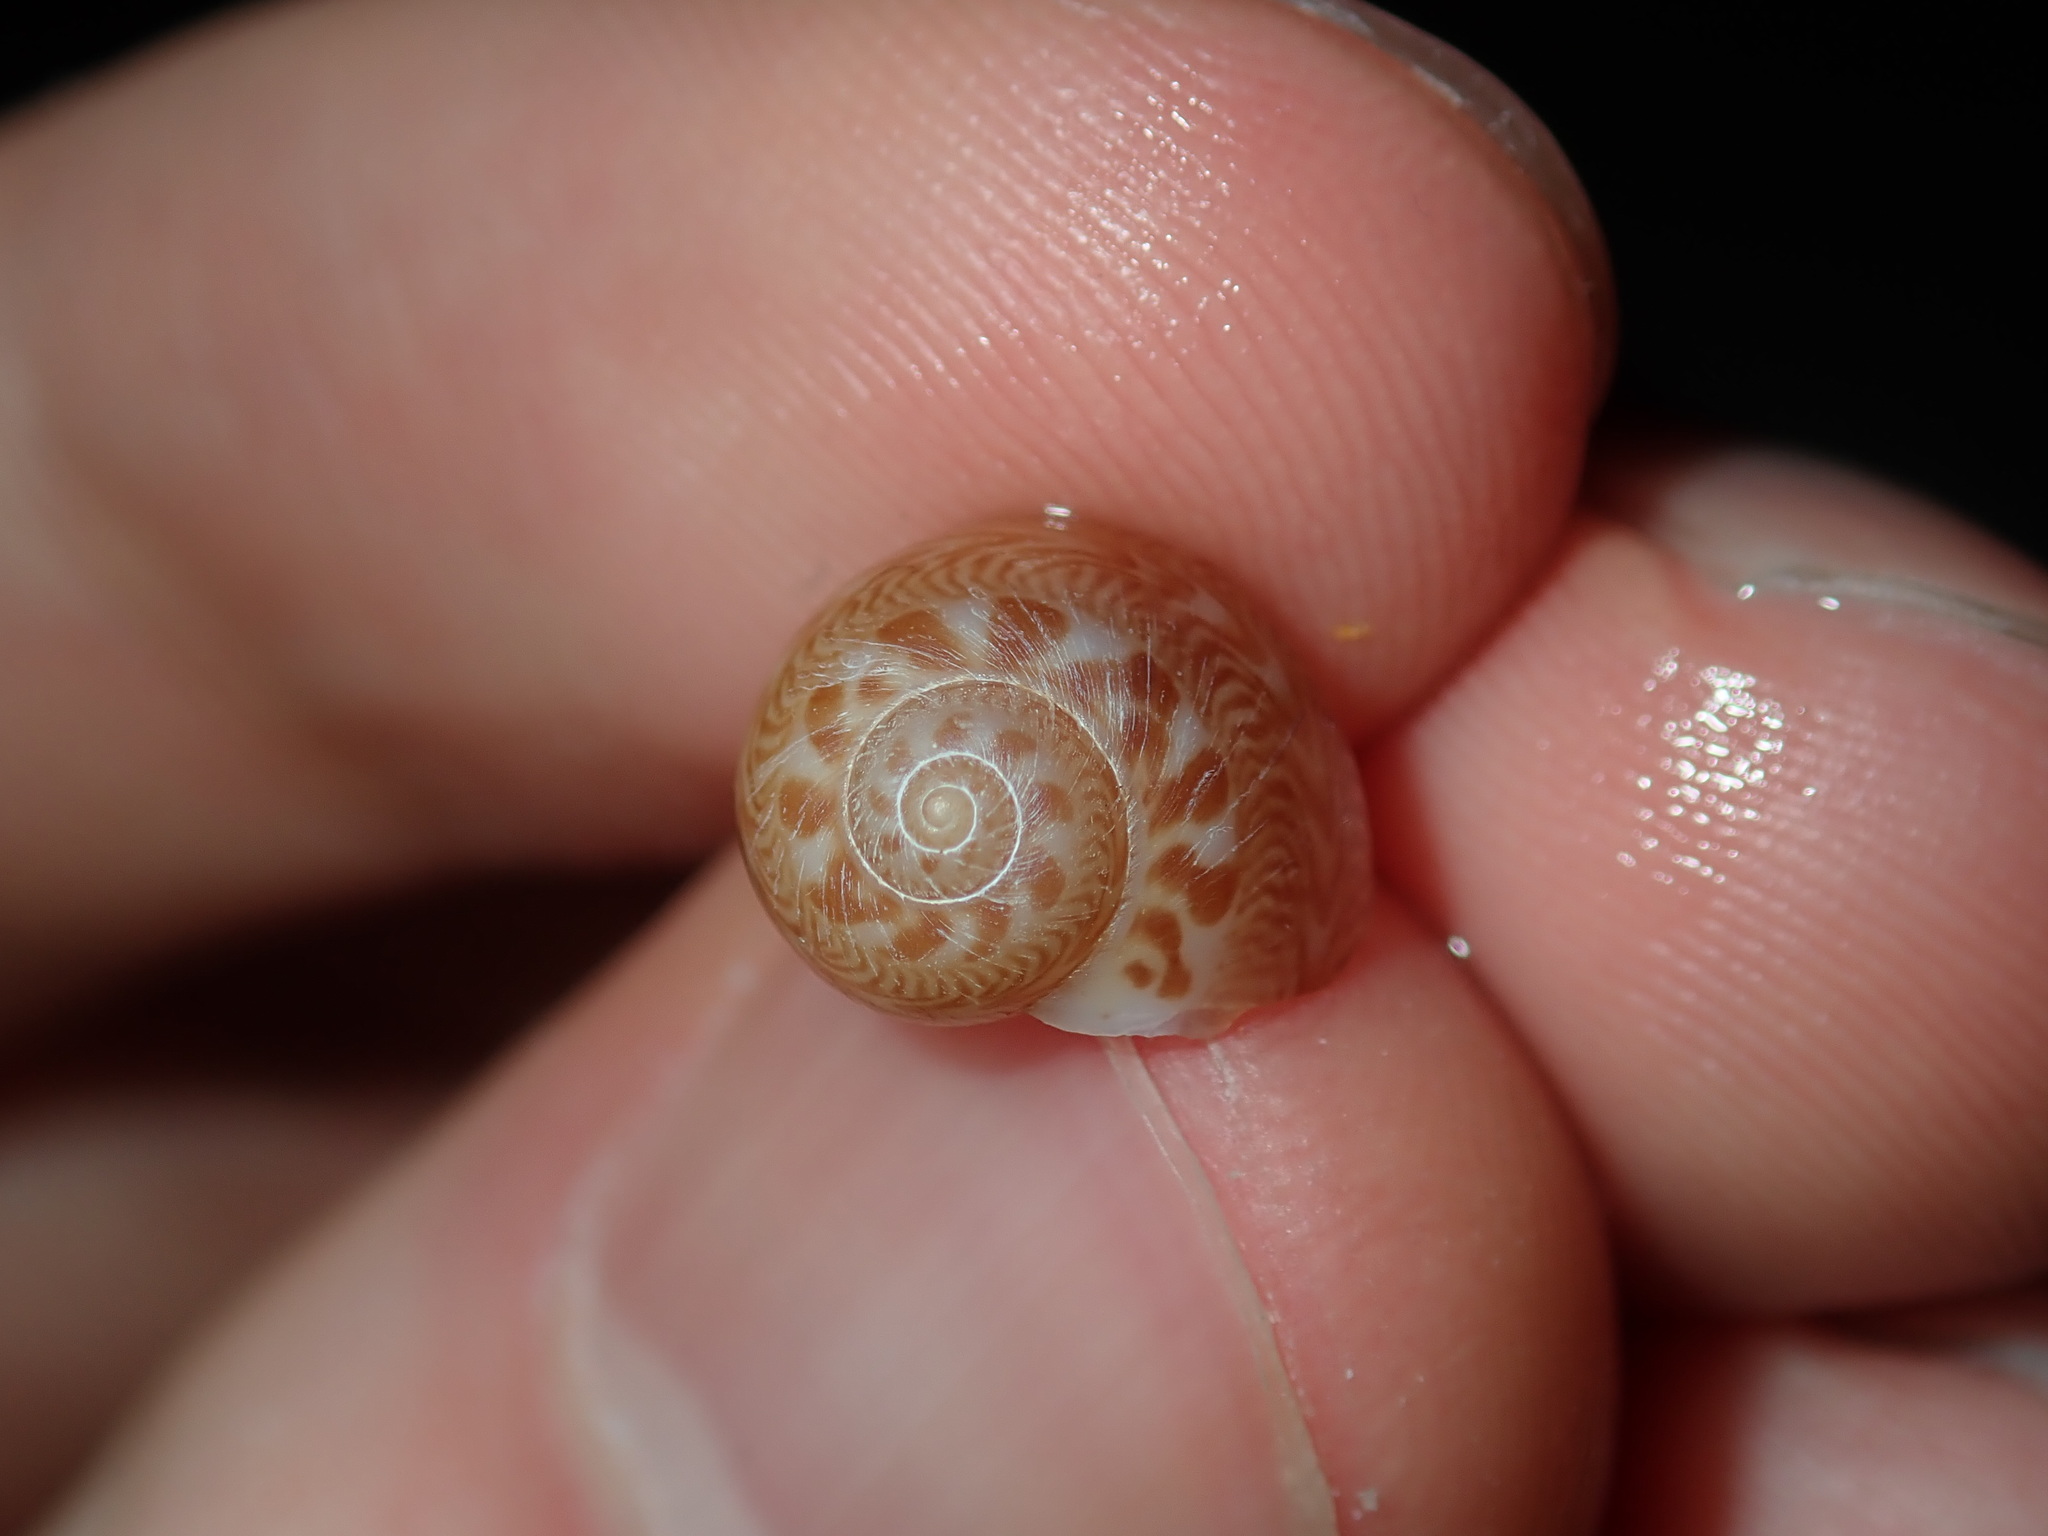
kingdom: Animalia
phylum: Mollusca
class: Gastropoda
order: Littorinimorpha
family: Naticidae
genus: Tanea
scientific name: Tanea sagittata
